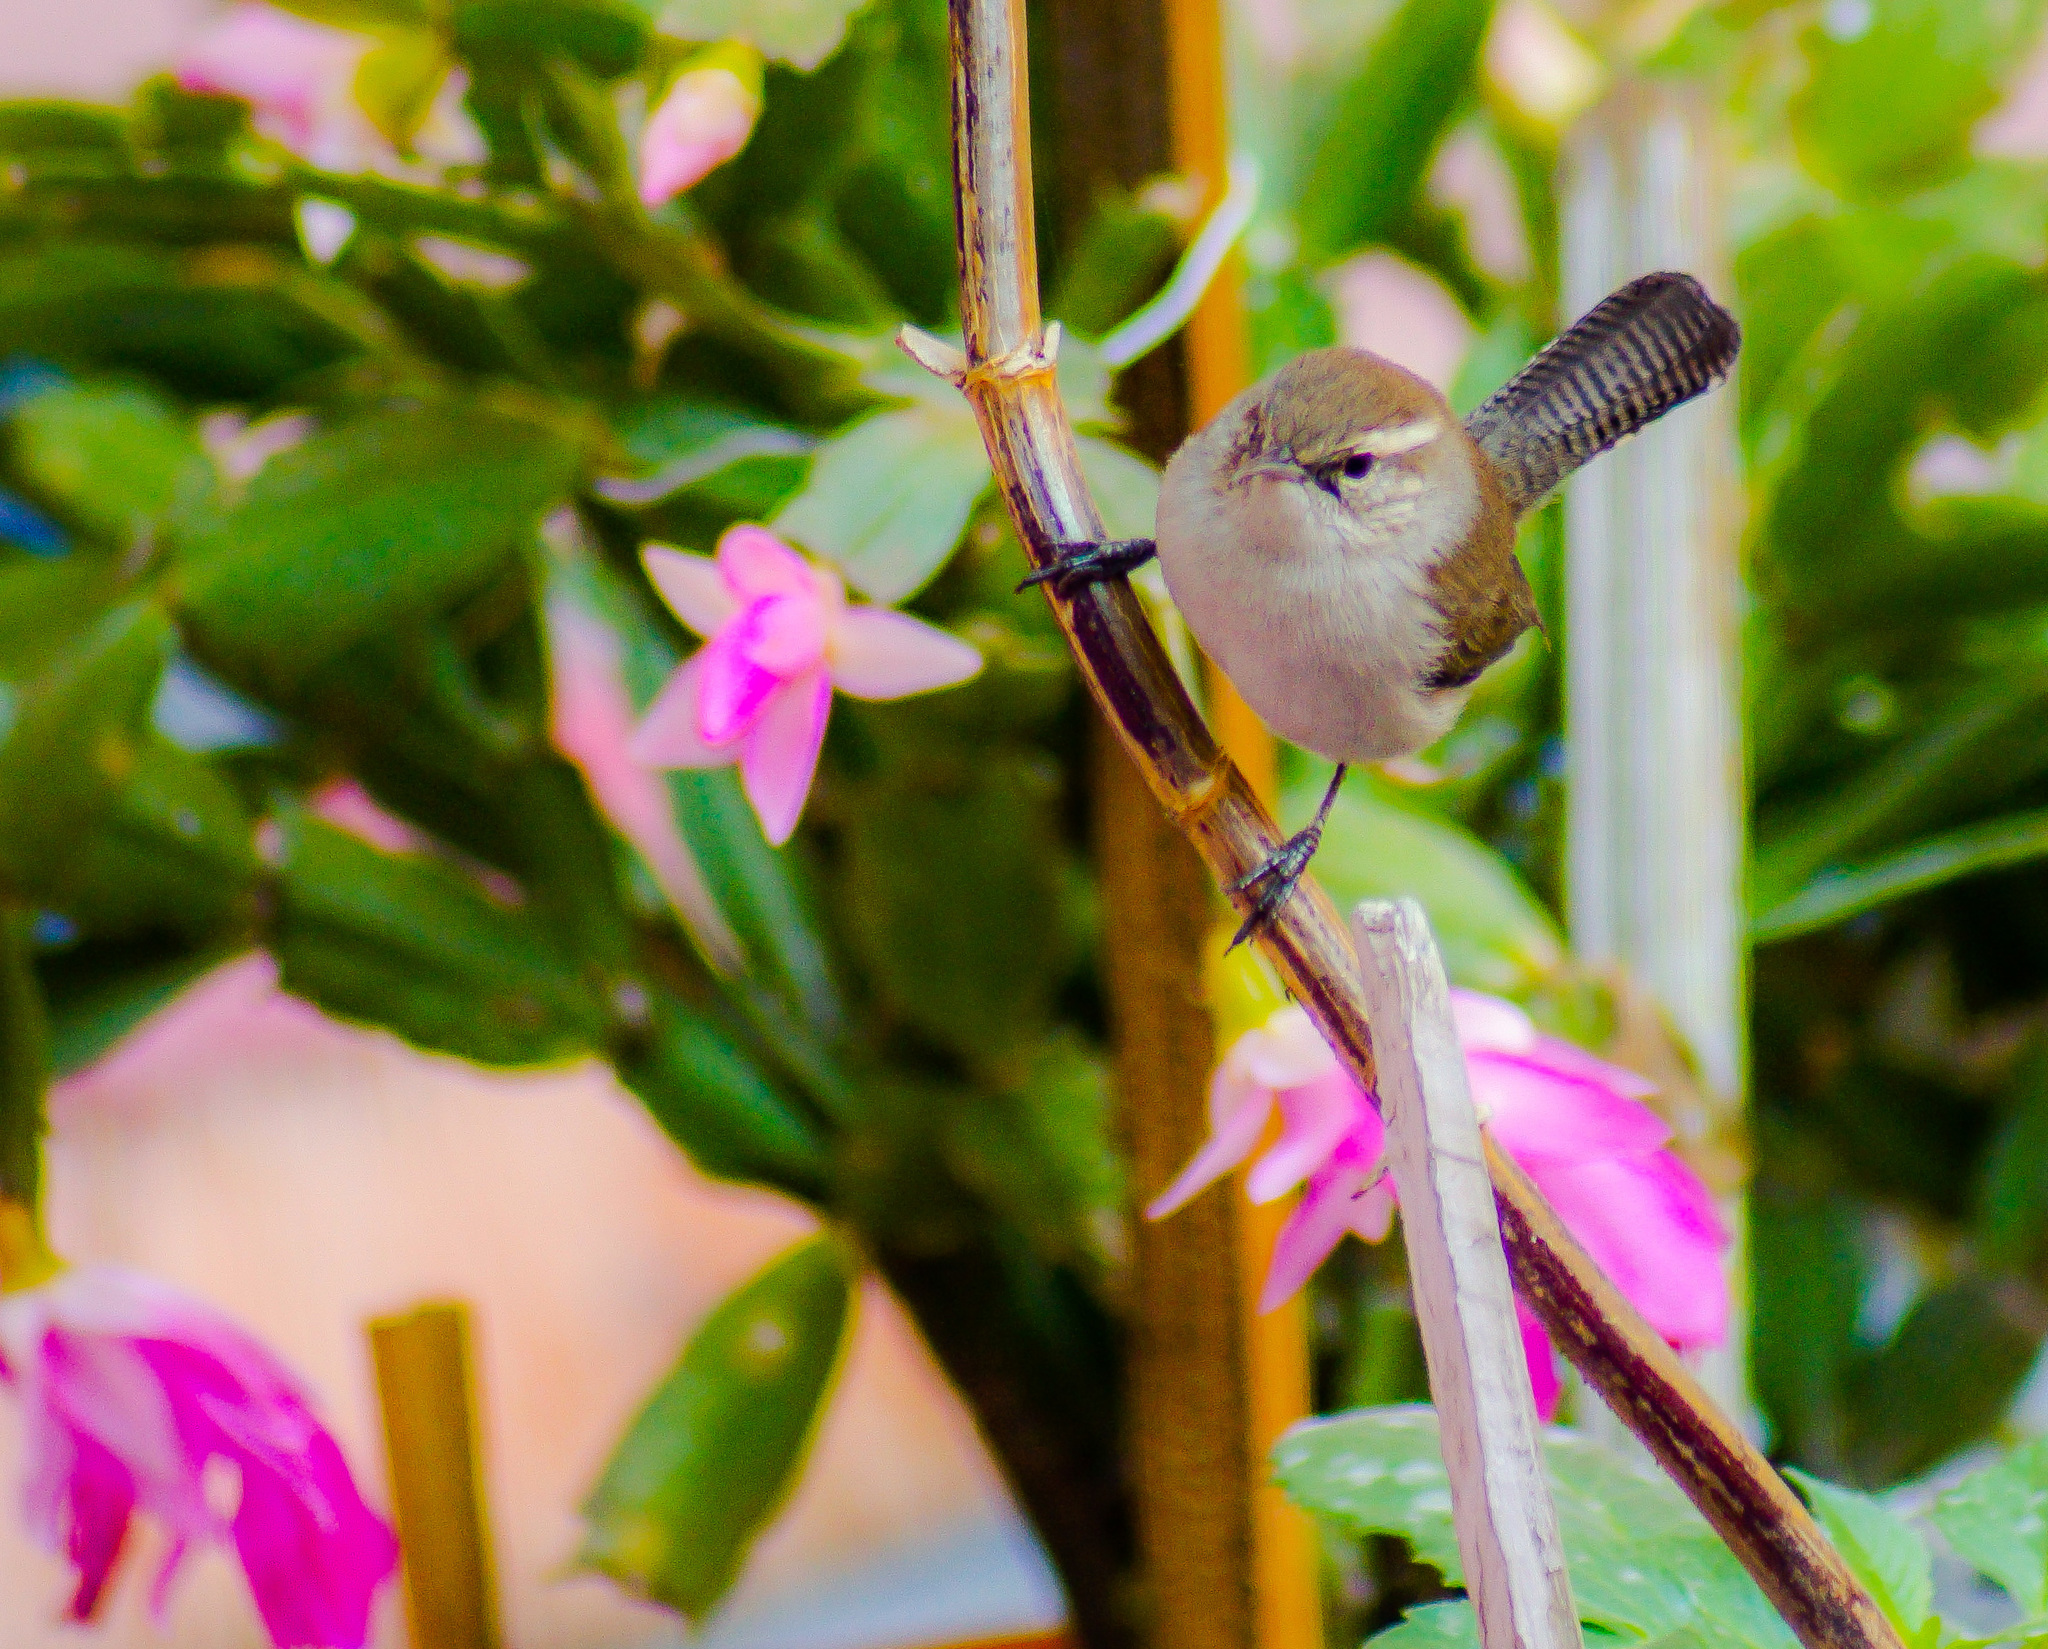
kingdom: Animalia
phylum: Chordata
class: Aves
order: Passeriformes
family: Troglodytidae
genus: Thryomanes
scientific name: Thryomanes bewickii
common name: Bewick's wren
